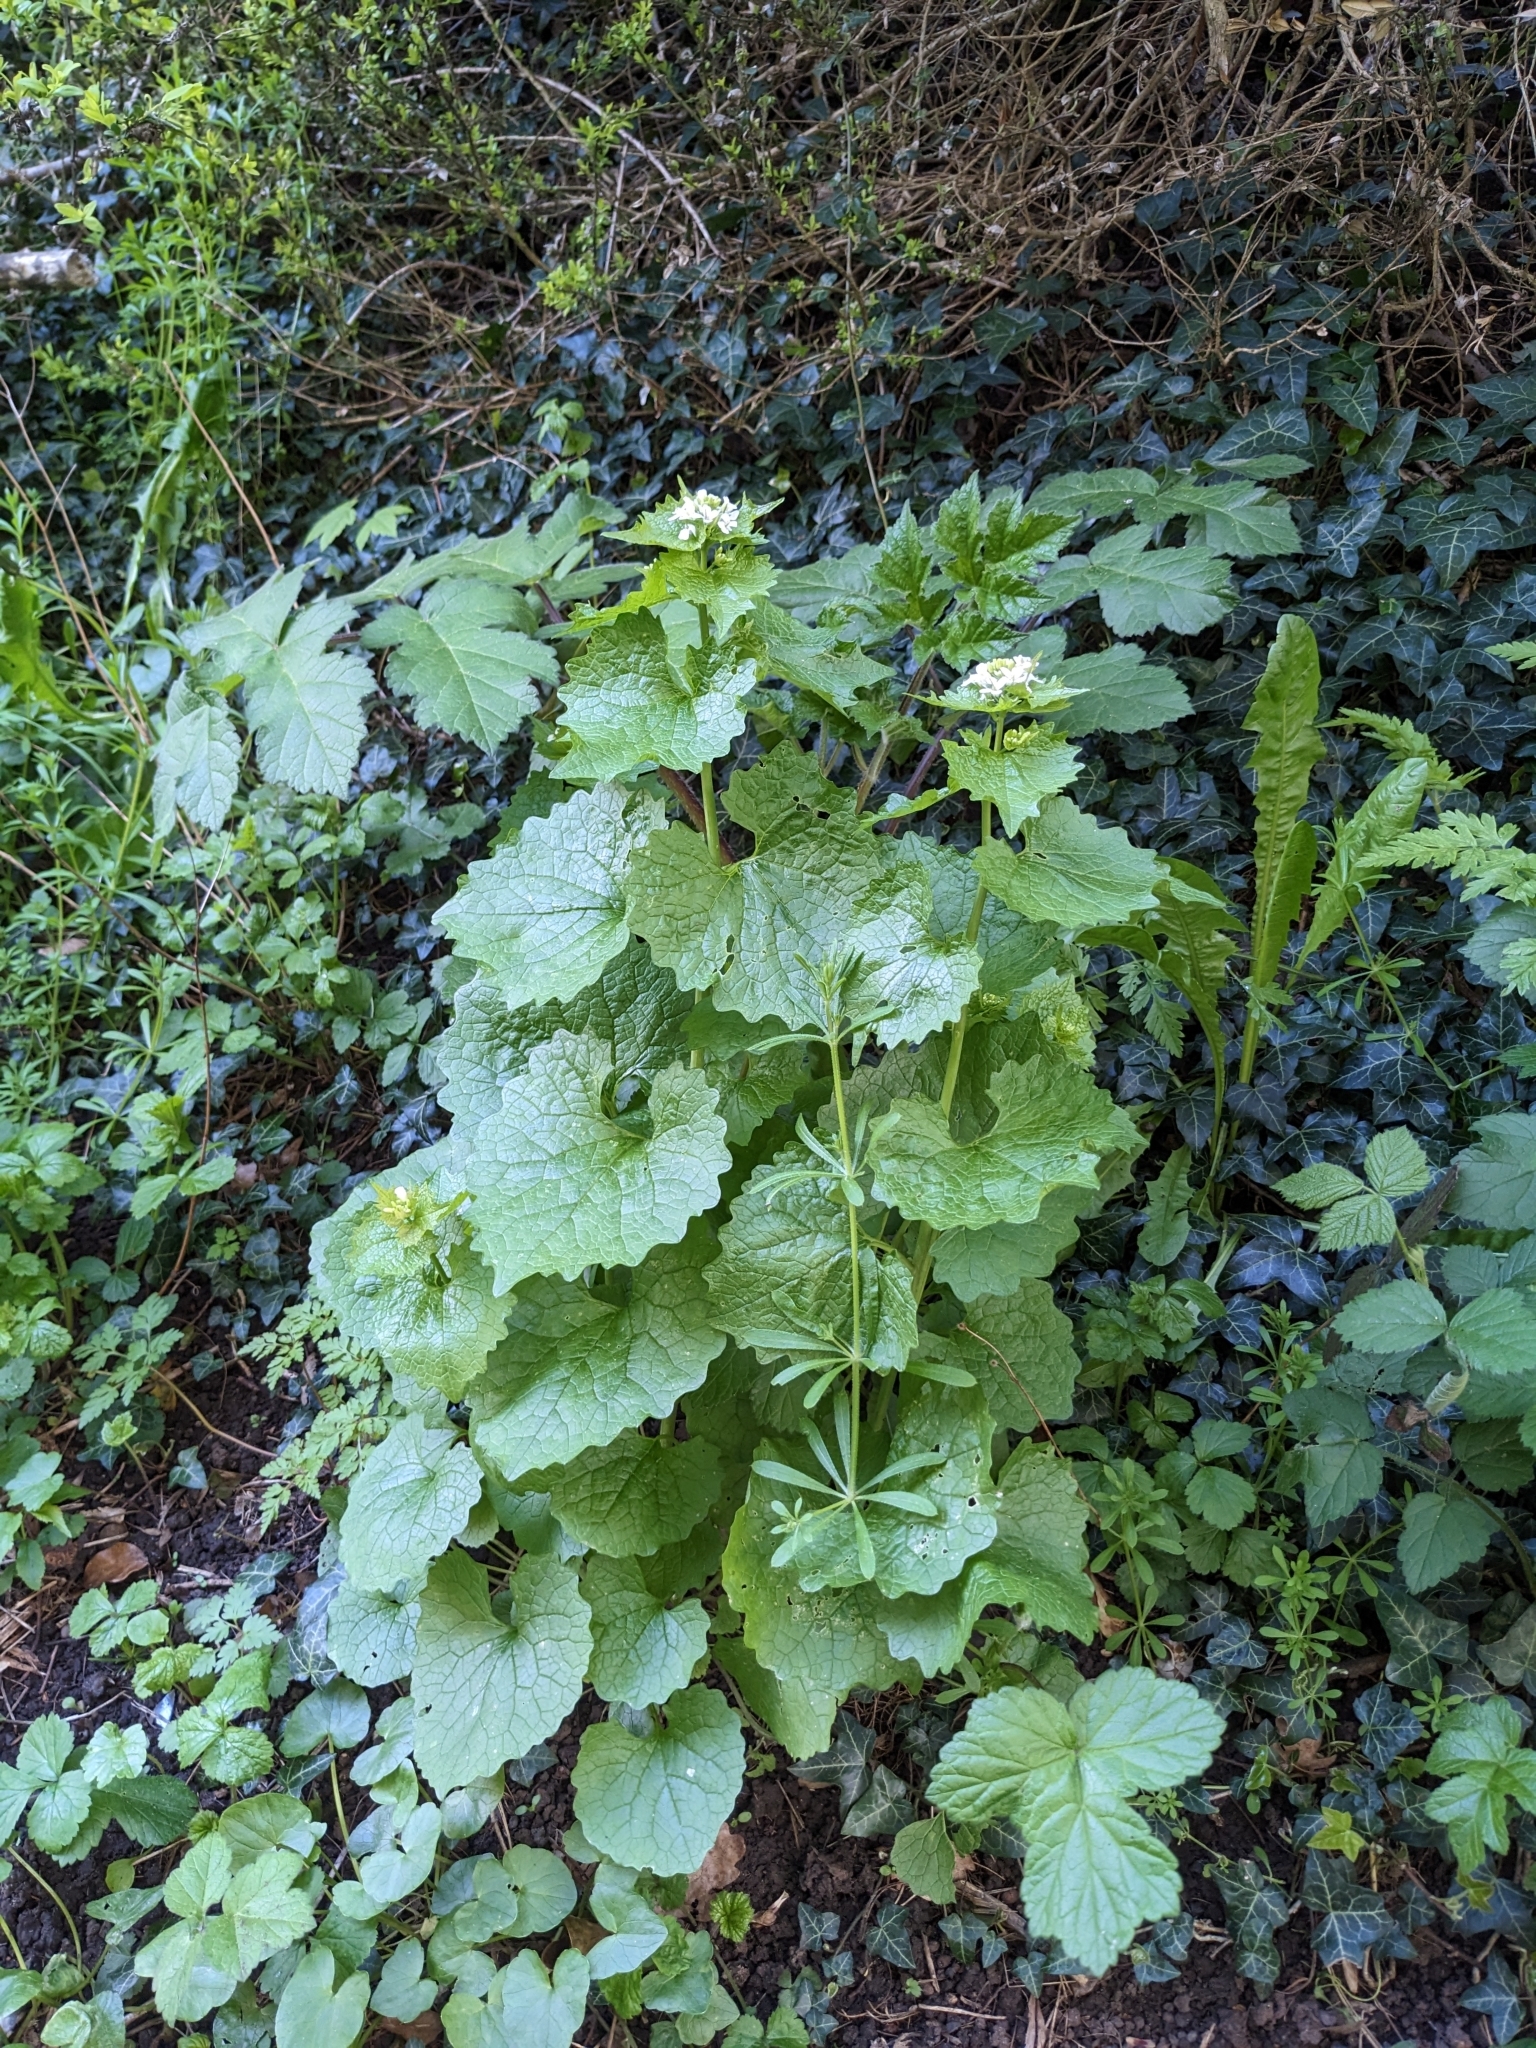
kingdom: Plantae
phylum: Tracheophyta
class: Magnoliopsida
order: Brassicales
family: Brassicaceae
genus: Alliaria
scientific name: Alliaria petiolata
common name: Garlic mustard
